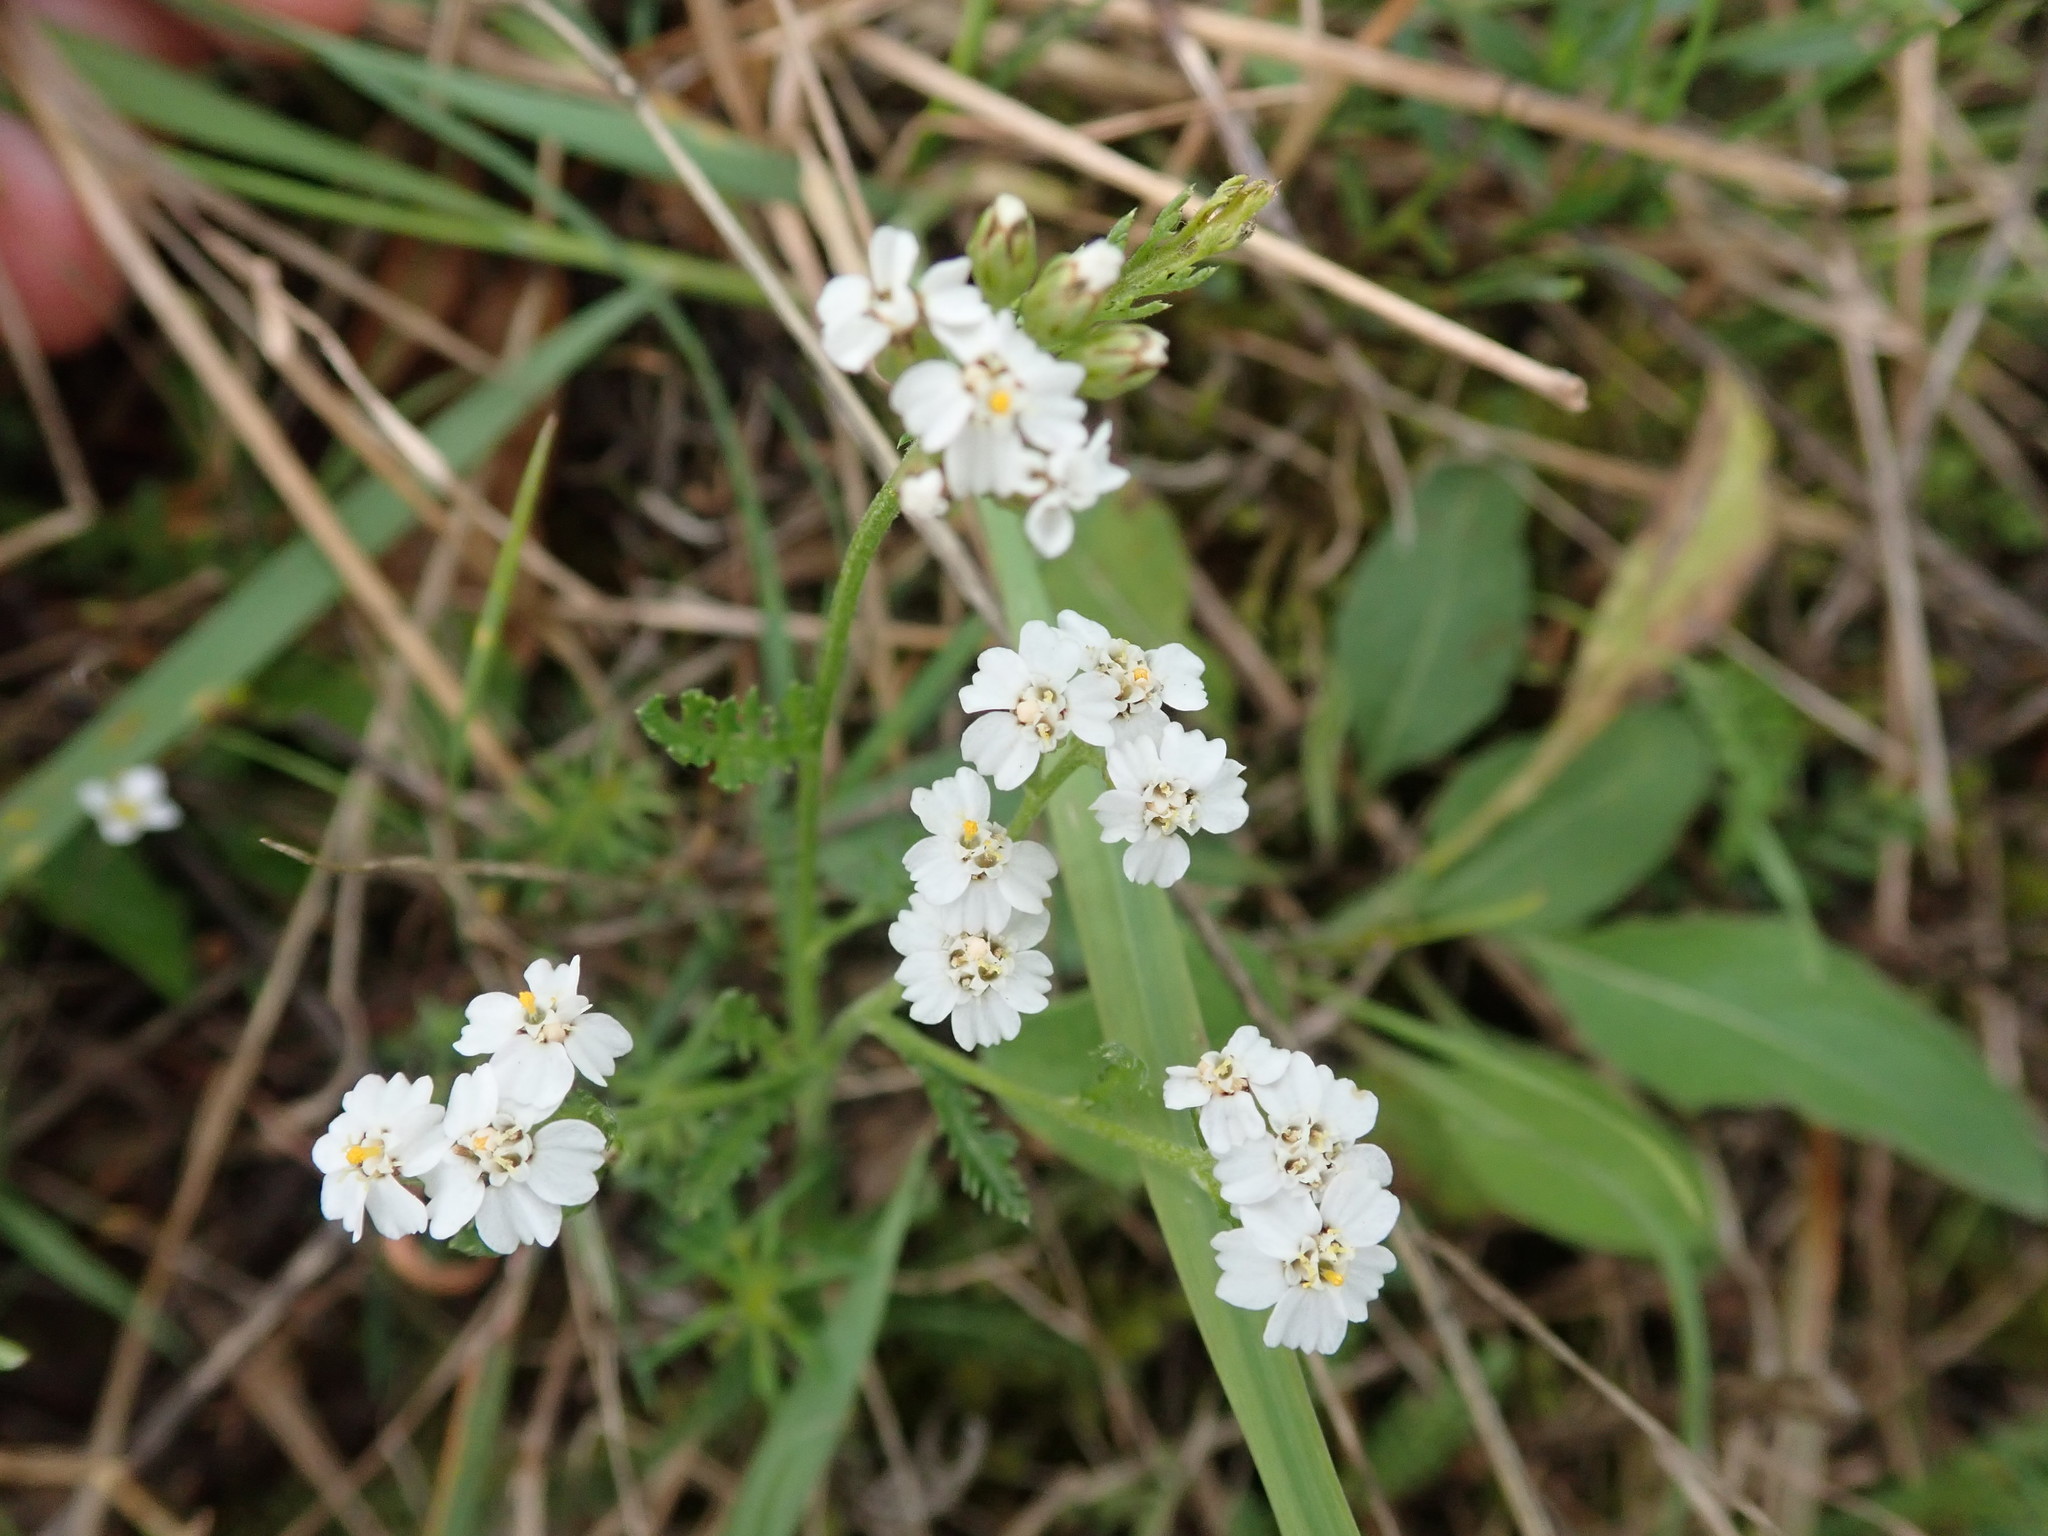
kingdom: Plantae
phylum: Tracheophyta
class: Magnoliopsida
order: Asterales
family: Asteraceae
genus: Achillea
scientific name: Achillea millefolium
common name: Yarrow
